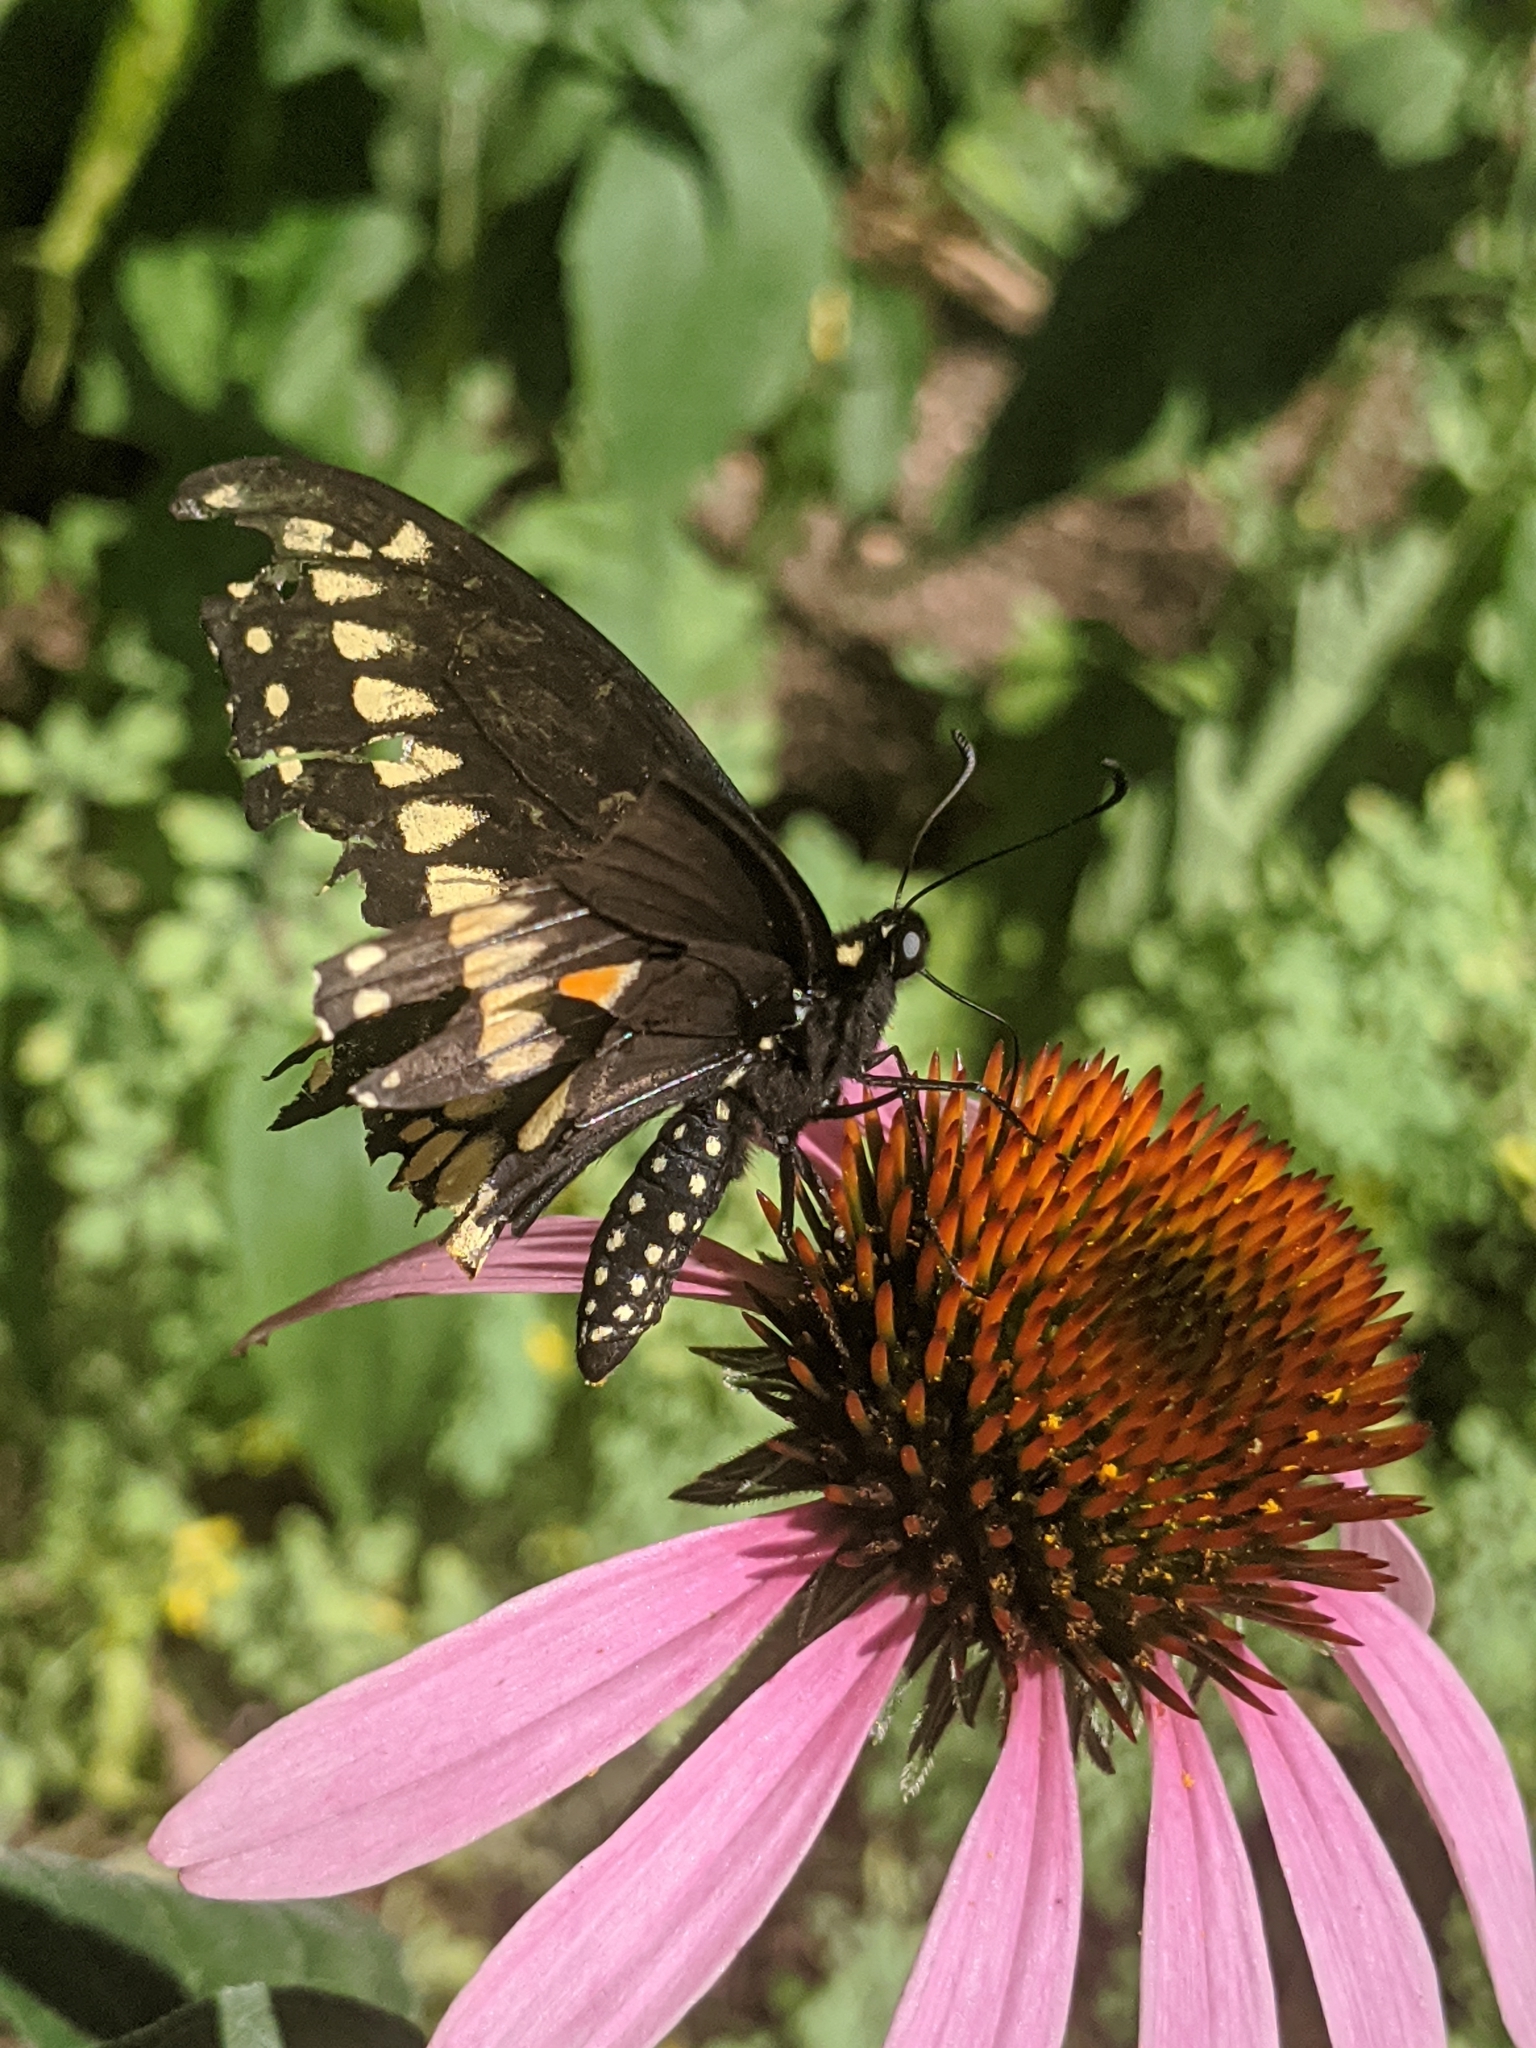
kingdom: Animalia
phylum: Arthropoda
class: Insecta
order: Lepidoptera
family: Papilionidae
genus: Papilio
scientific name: Papilio polyxenes
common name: Black swallowtail
